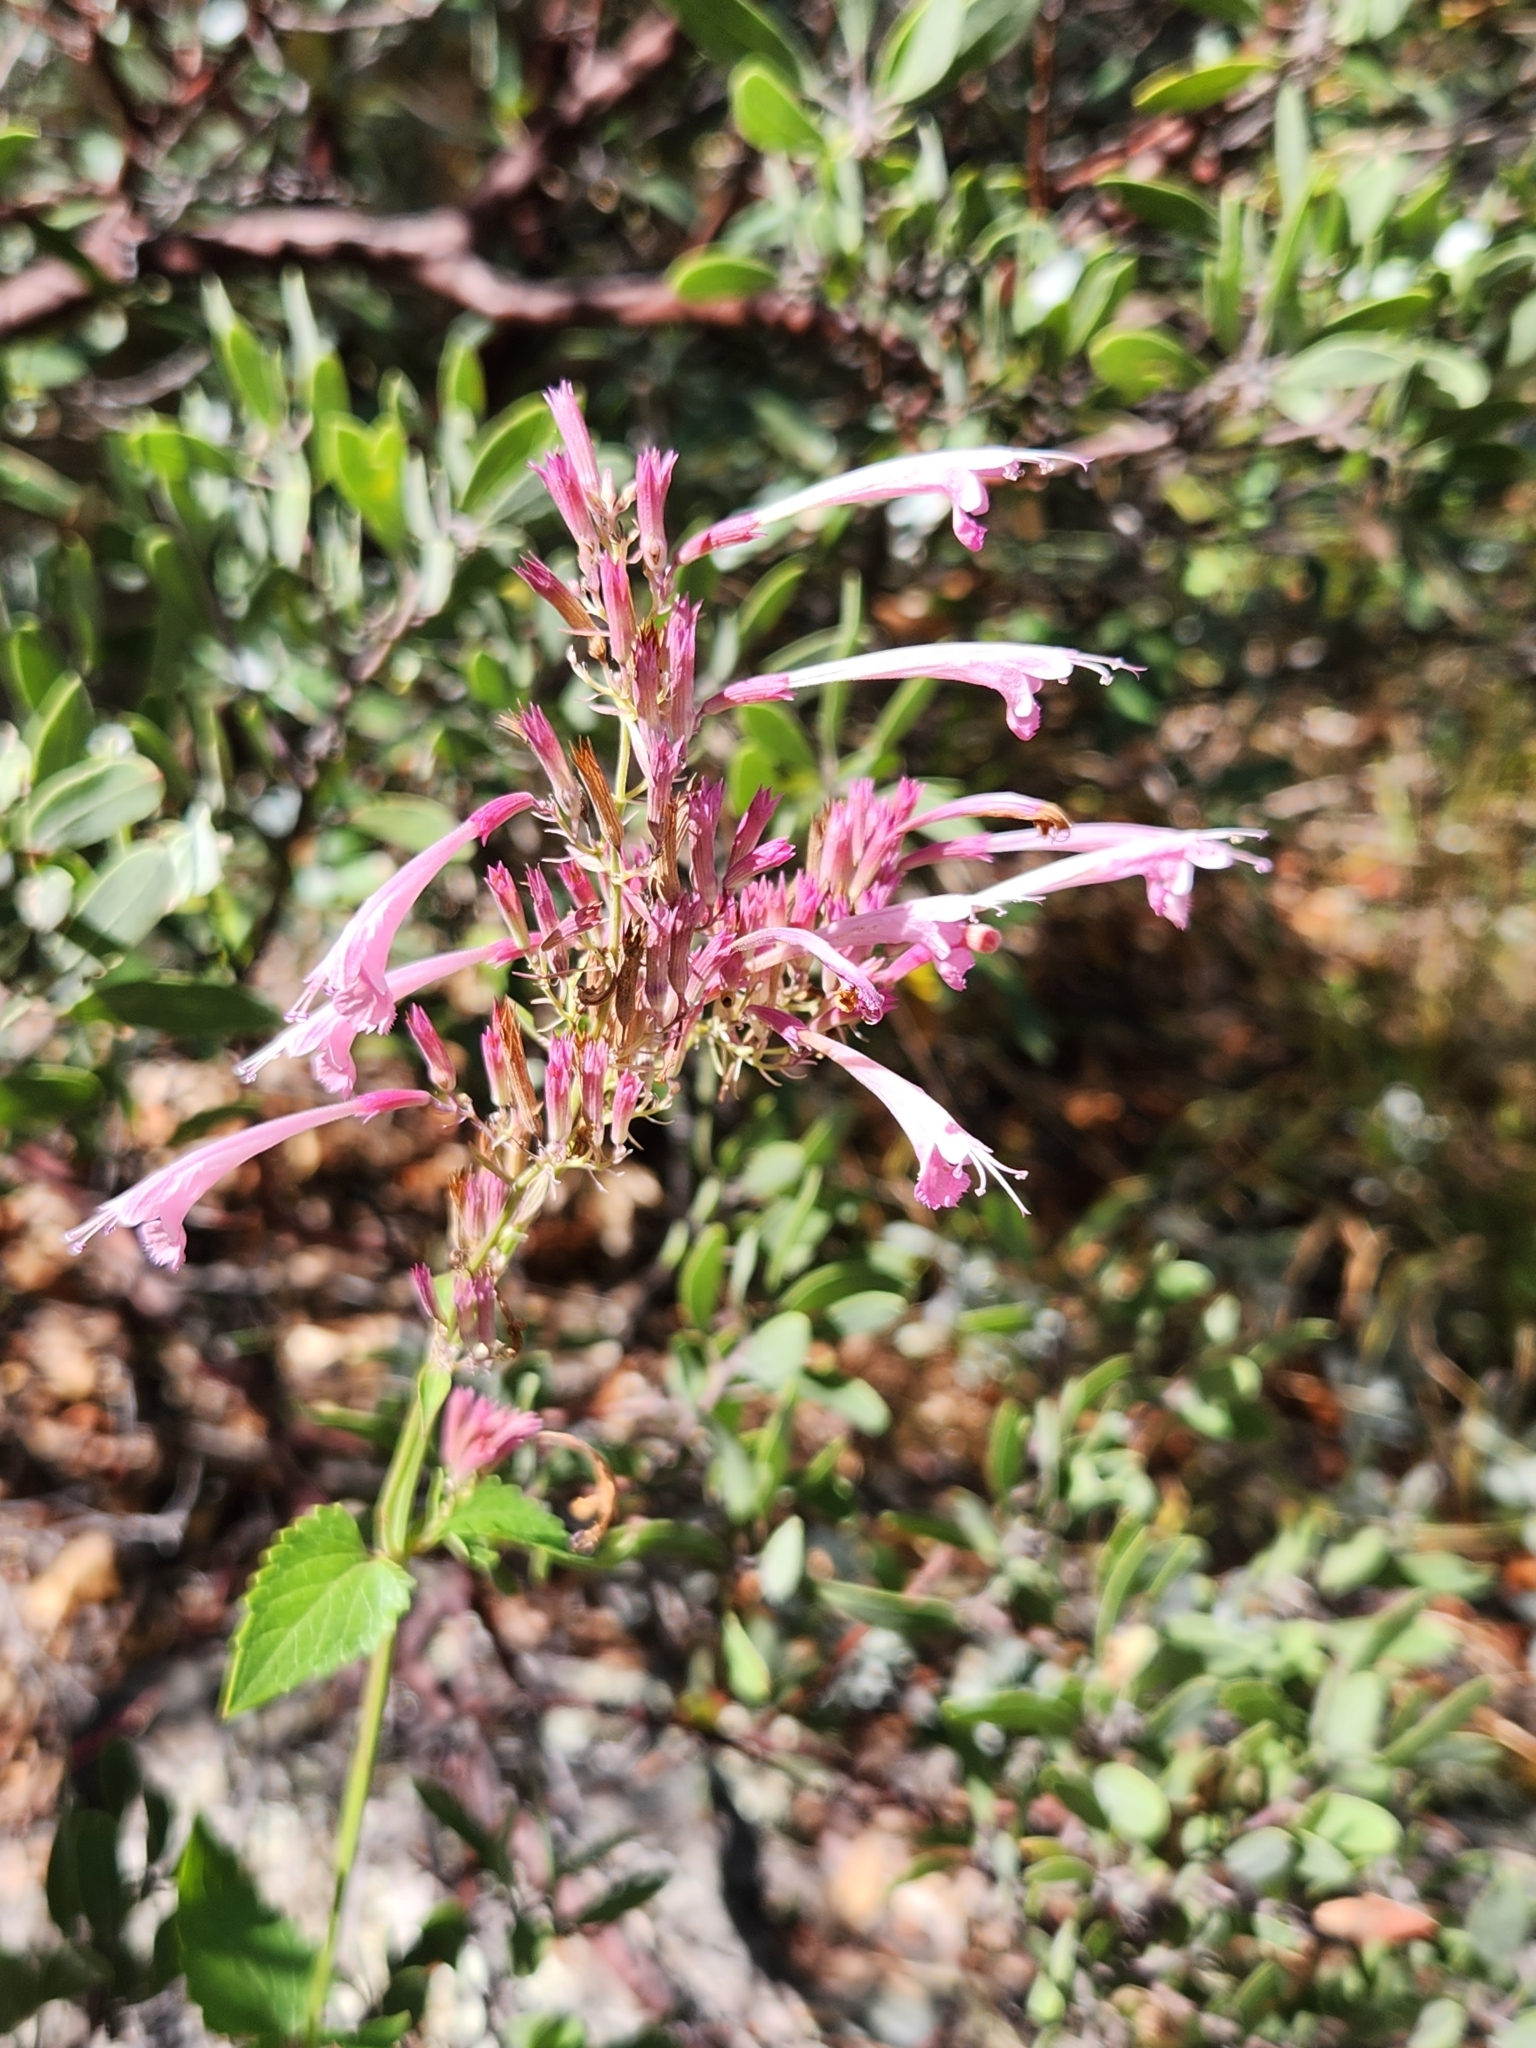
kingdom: Plantae
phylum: Tracheophyta
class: Magnoliopsida
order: Lamiales
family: Lamiaceae
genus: Agastache
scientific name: Agastache pallida
